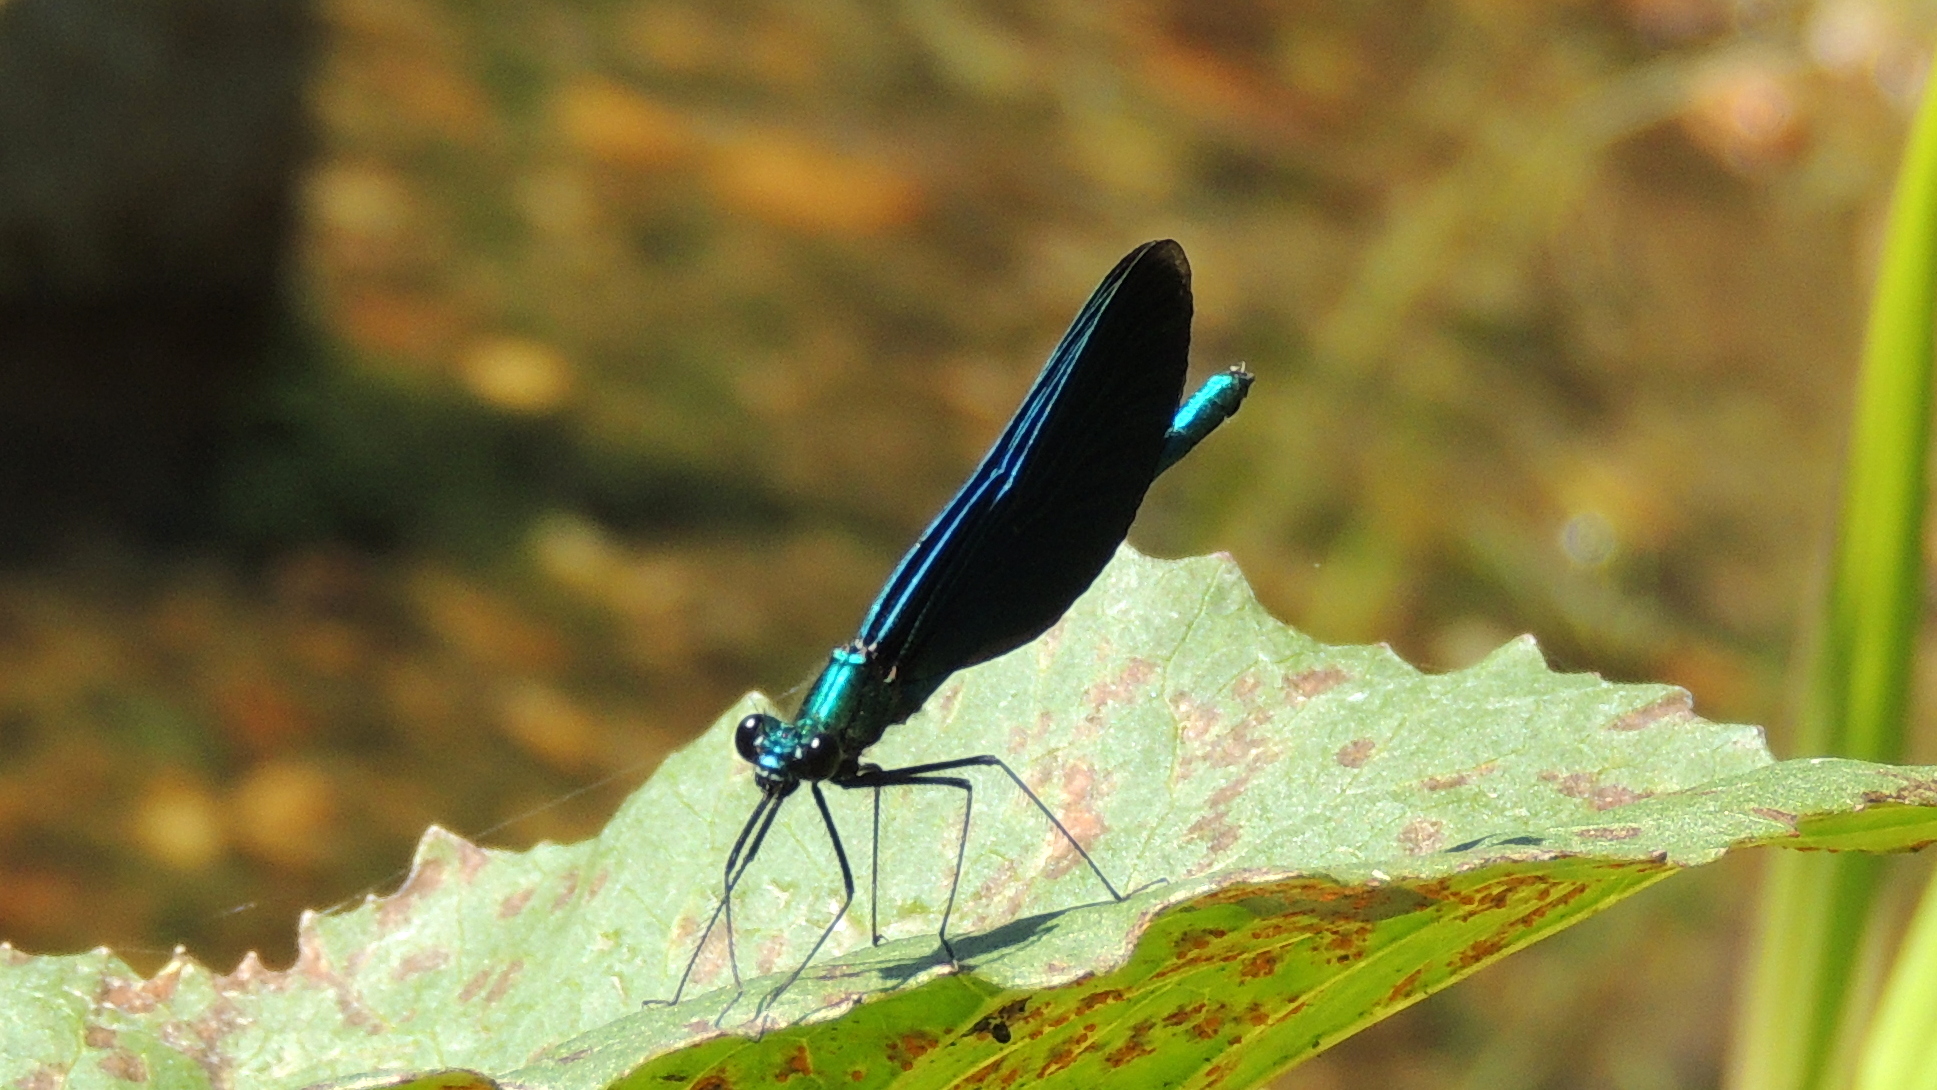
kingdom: Animalia
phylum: Arthropoda
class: Insecta
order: Odonata
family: Calopterygidae
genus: Calopteryx
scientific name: Calopteryx virgo
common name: Beautiful demoiselle
